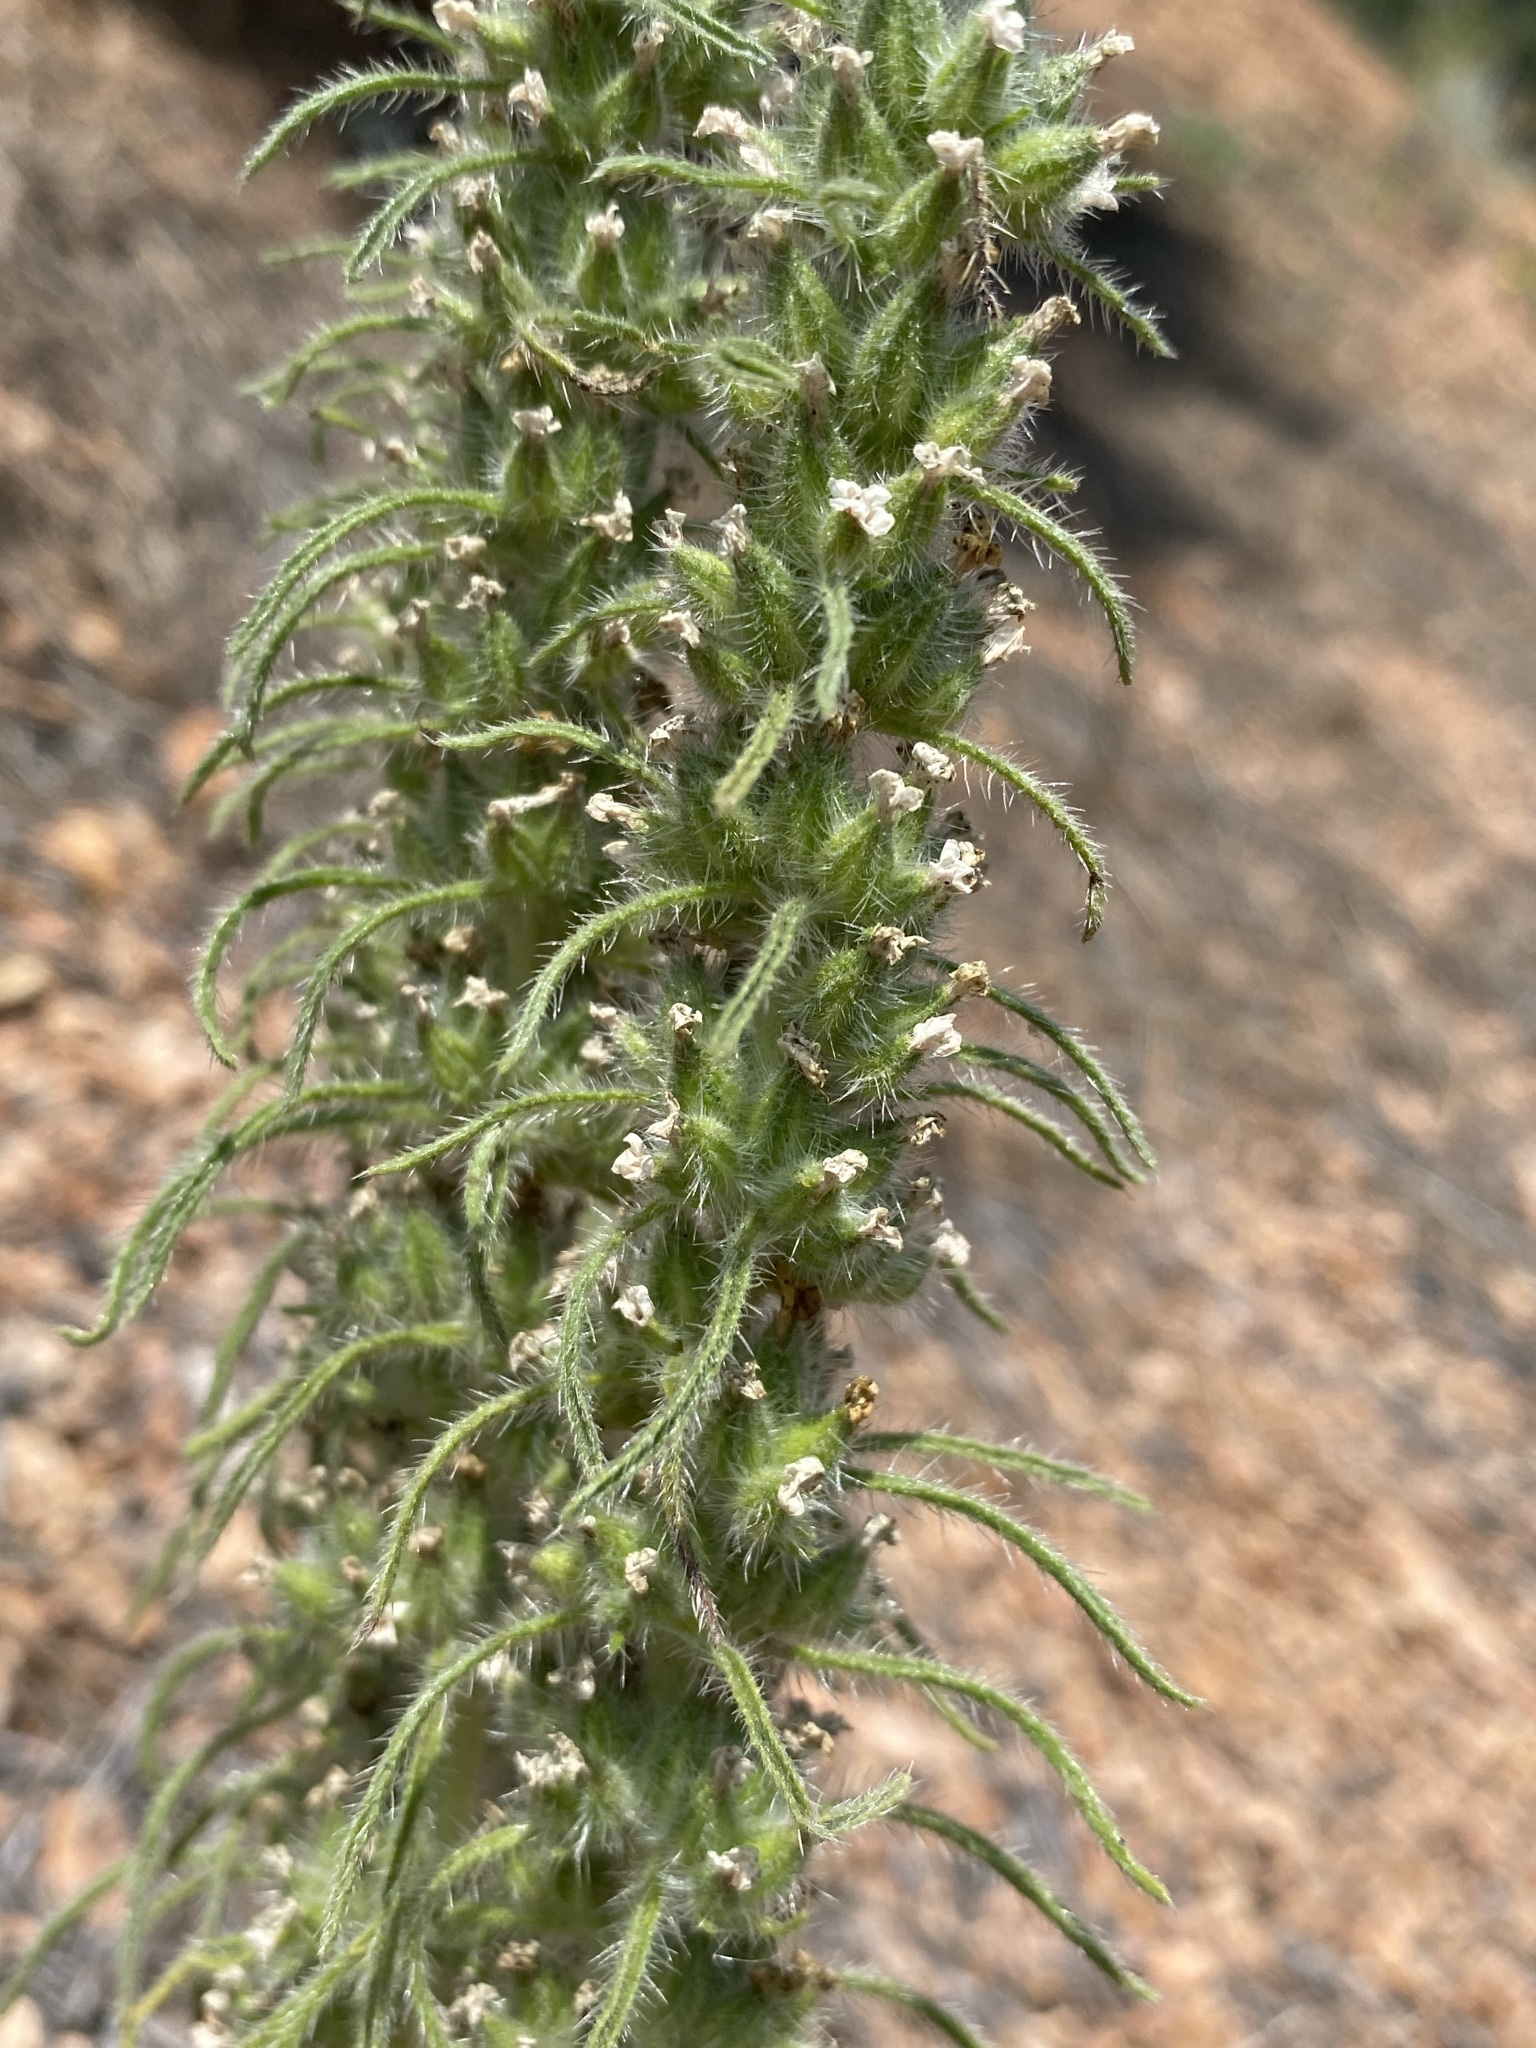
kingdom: Plantae
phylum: Tracheophyta
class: Magnoliopsida
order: Boraginales
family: Boraginaceae
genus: Oreocarya
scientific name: Oreocarya virgata
